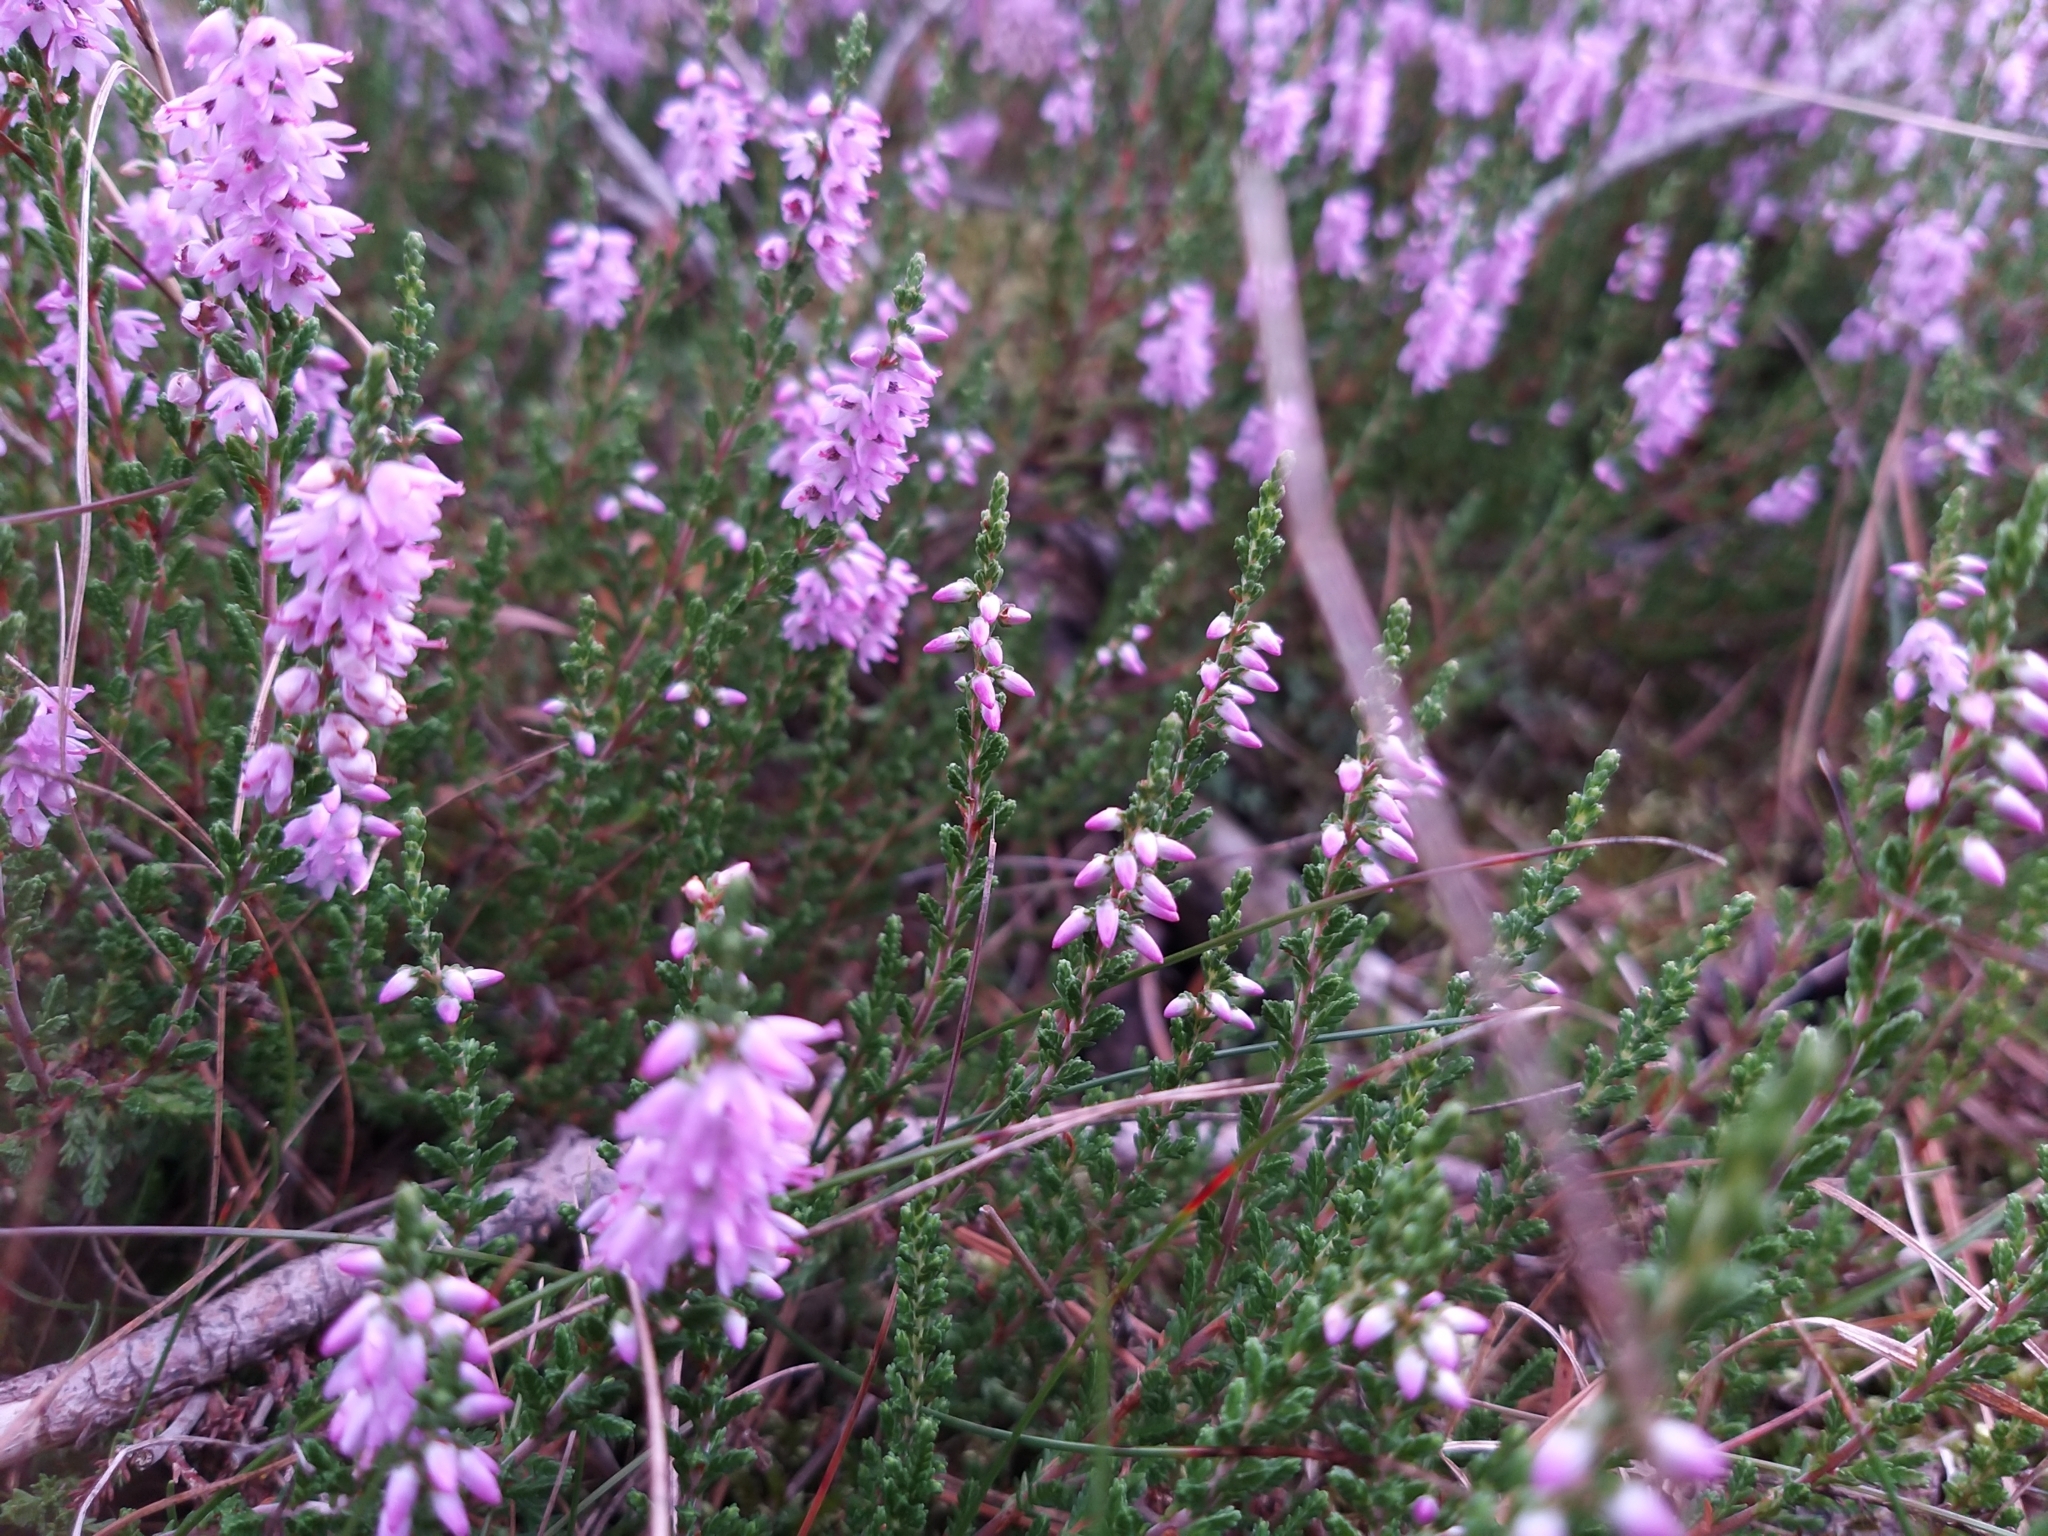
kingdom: Plantae
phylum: Tracheophyta
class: Magnoliopsida
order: Ericales
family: Ericaceae
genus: Calluna
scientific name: Calluna vulgaris
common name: Heather
